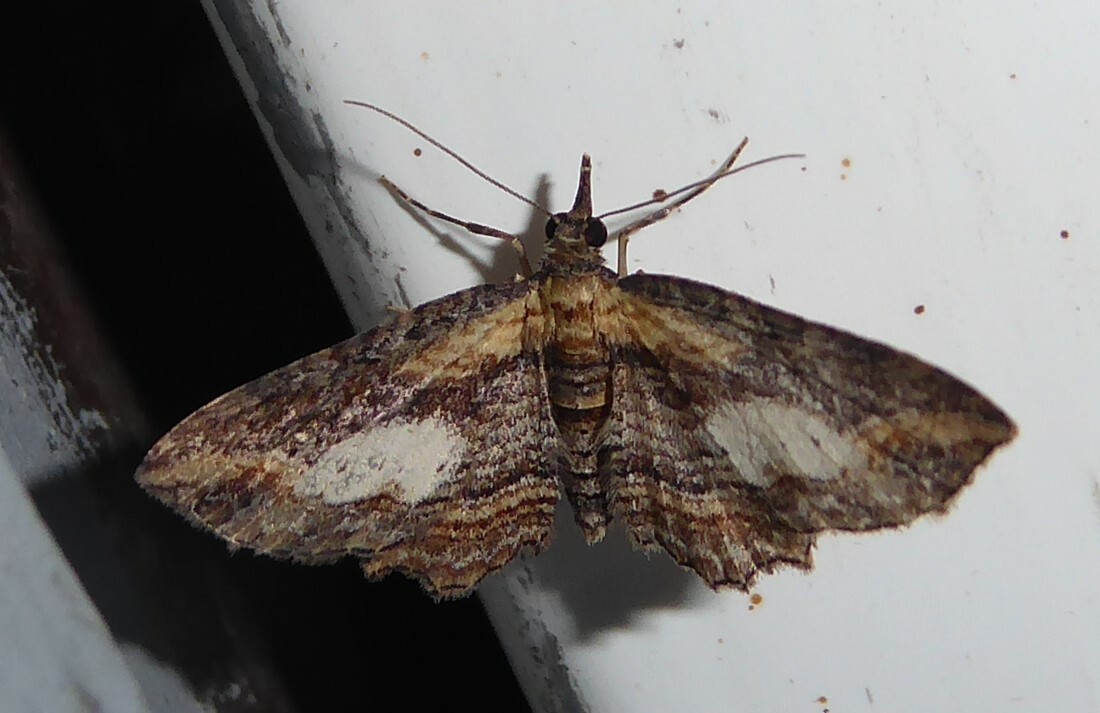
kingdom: Animalia
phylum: Arthropoda
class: Insecta
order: Lepidoptera
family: Geometridae
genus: Chloroclystis
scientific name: Chloroclystis filata
